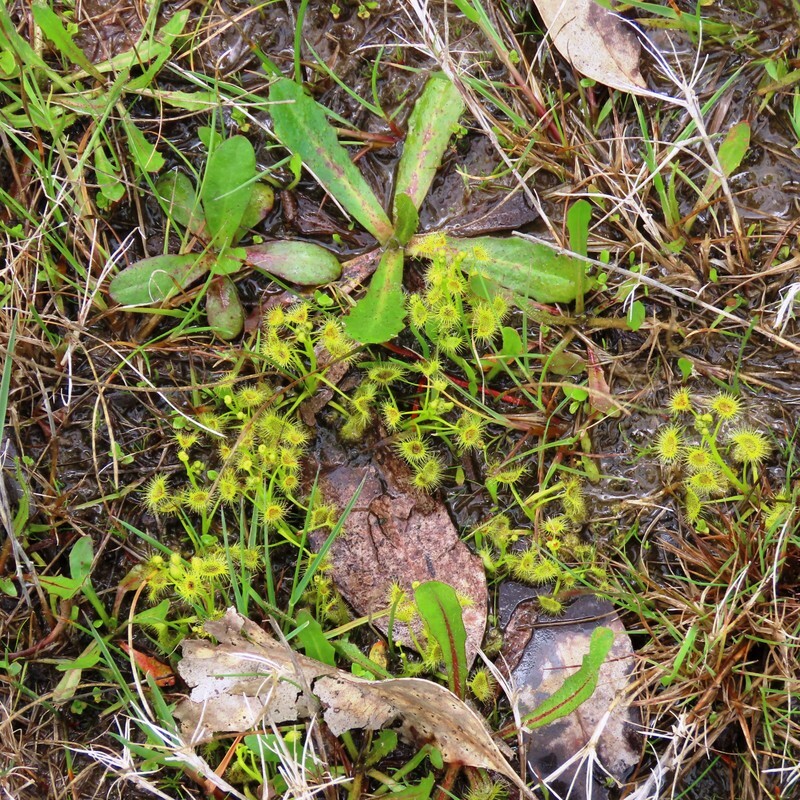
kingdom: Plantae
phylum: Tracheophyta
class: Magnoliopsida
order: Caryophyllales
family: Droseraceae
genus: Drosera
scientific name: Drosera hookeri
